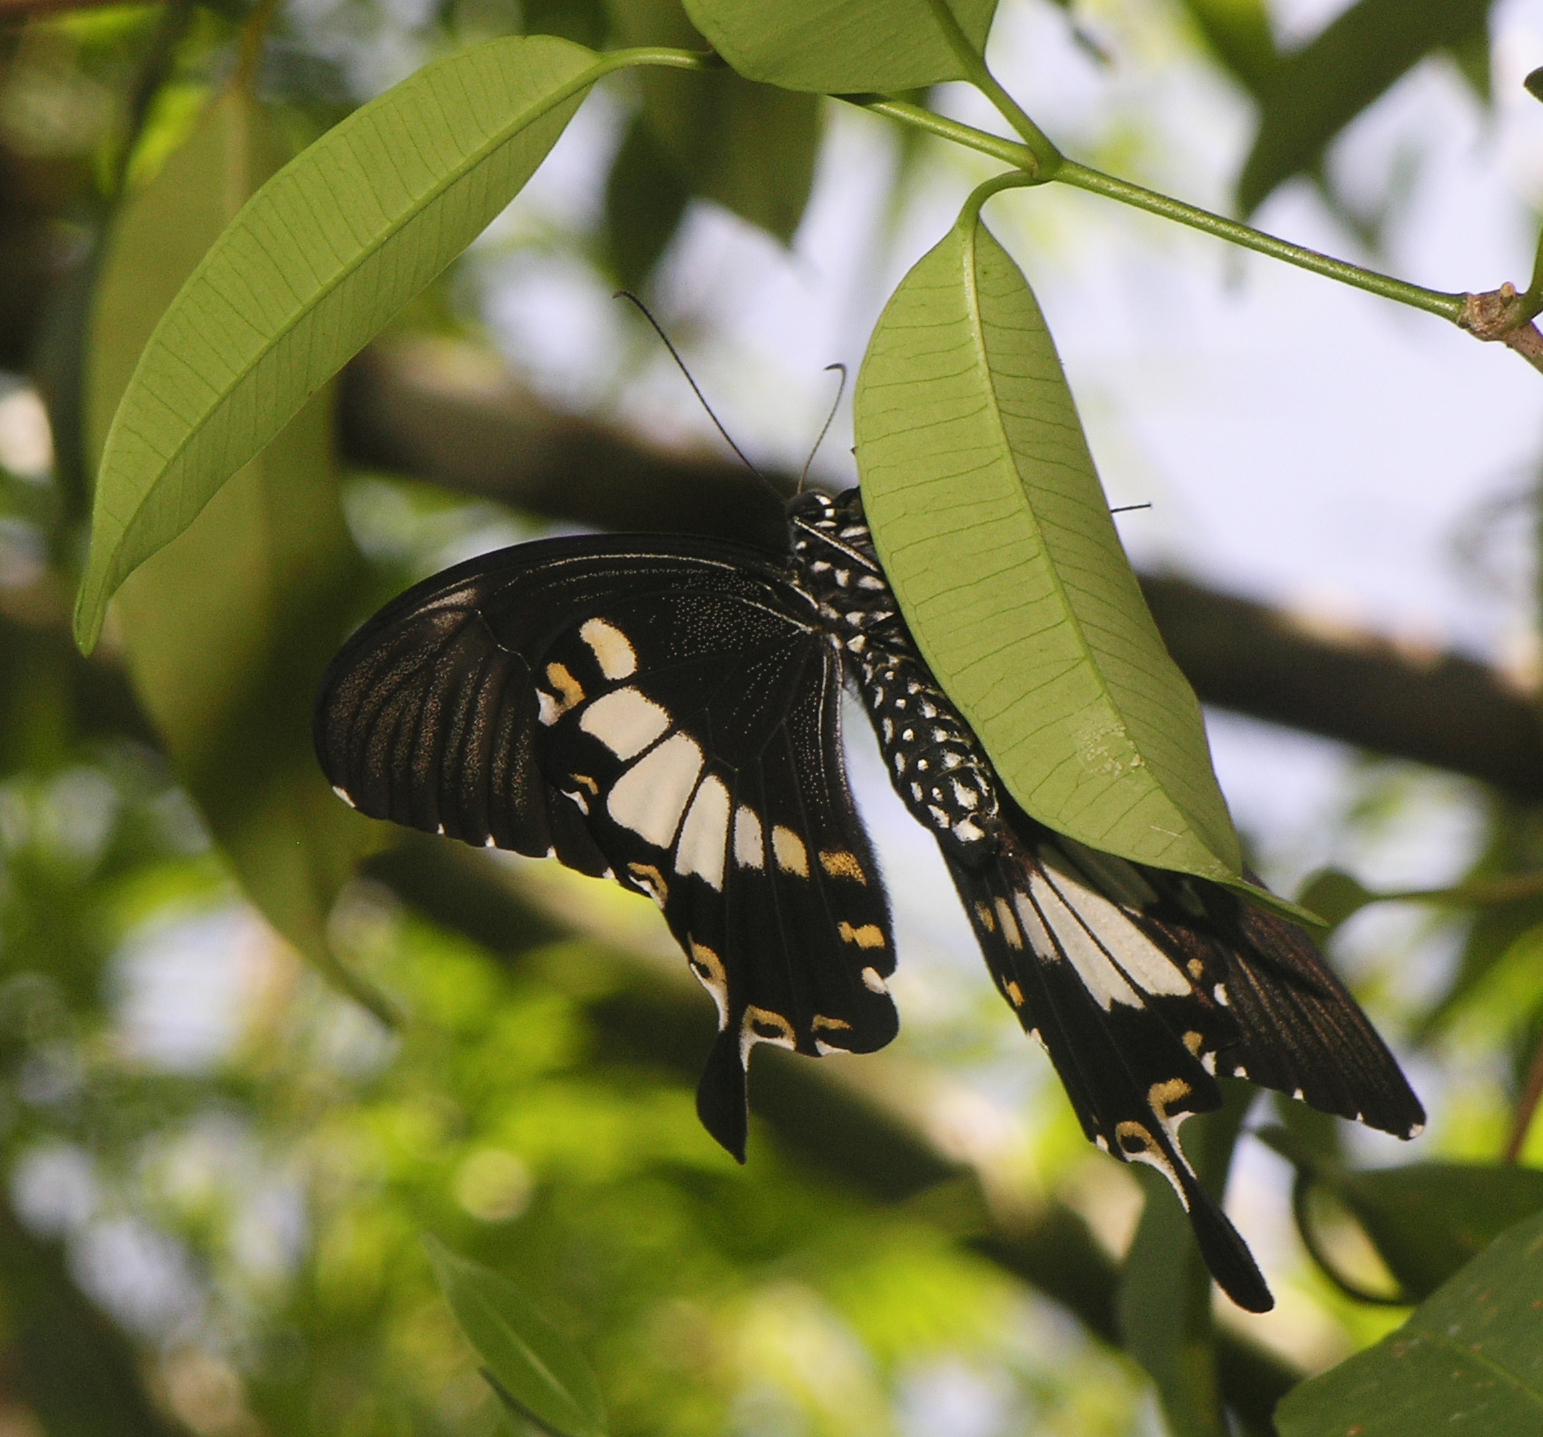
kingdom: Animalia
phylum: Arthropoda
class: Insecta
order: Lepidoptera
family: Papilionidae
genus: Atrophaneura
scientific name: Atrophaneura varuna
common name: Common batwing
